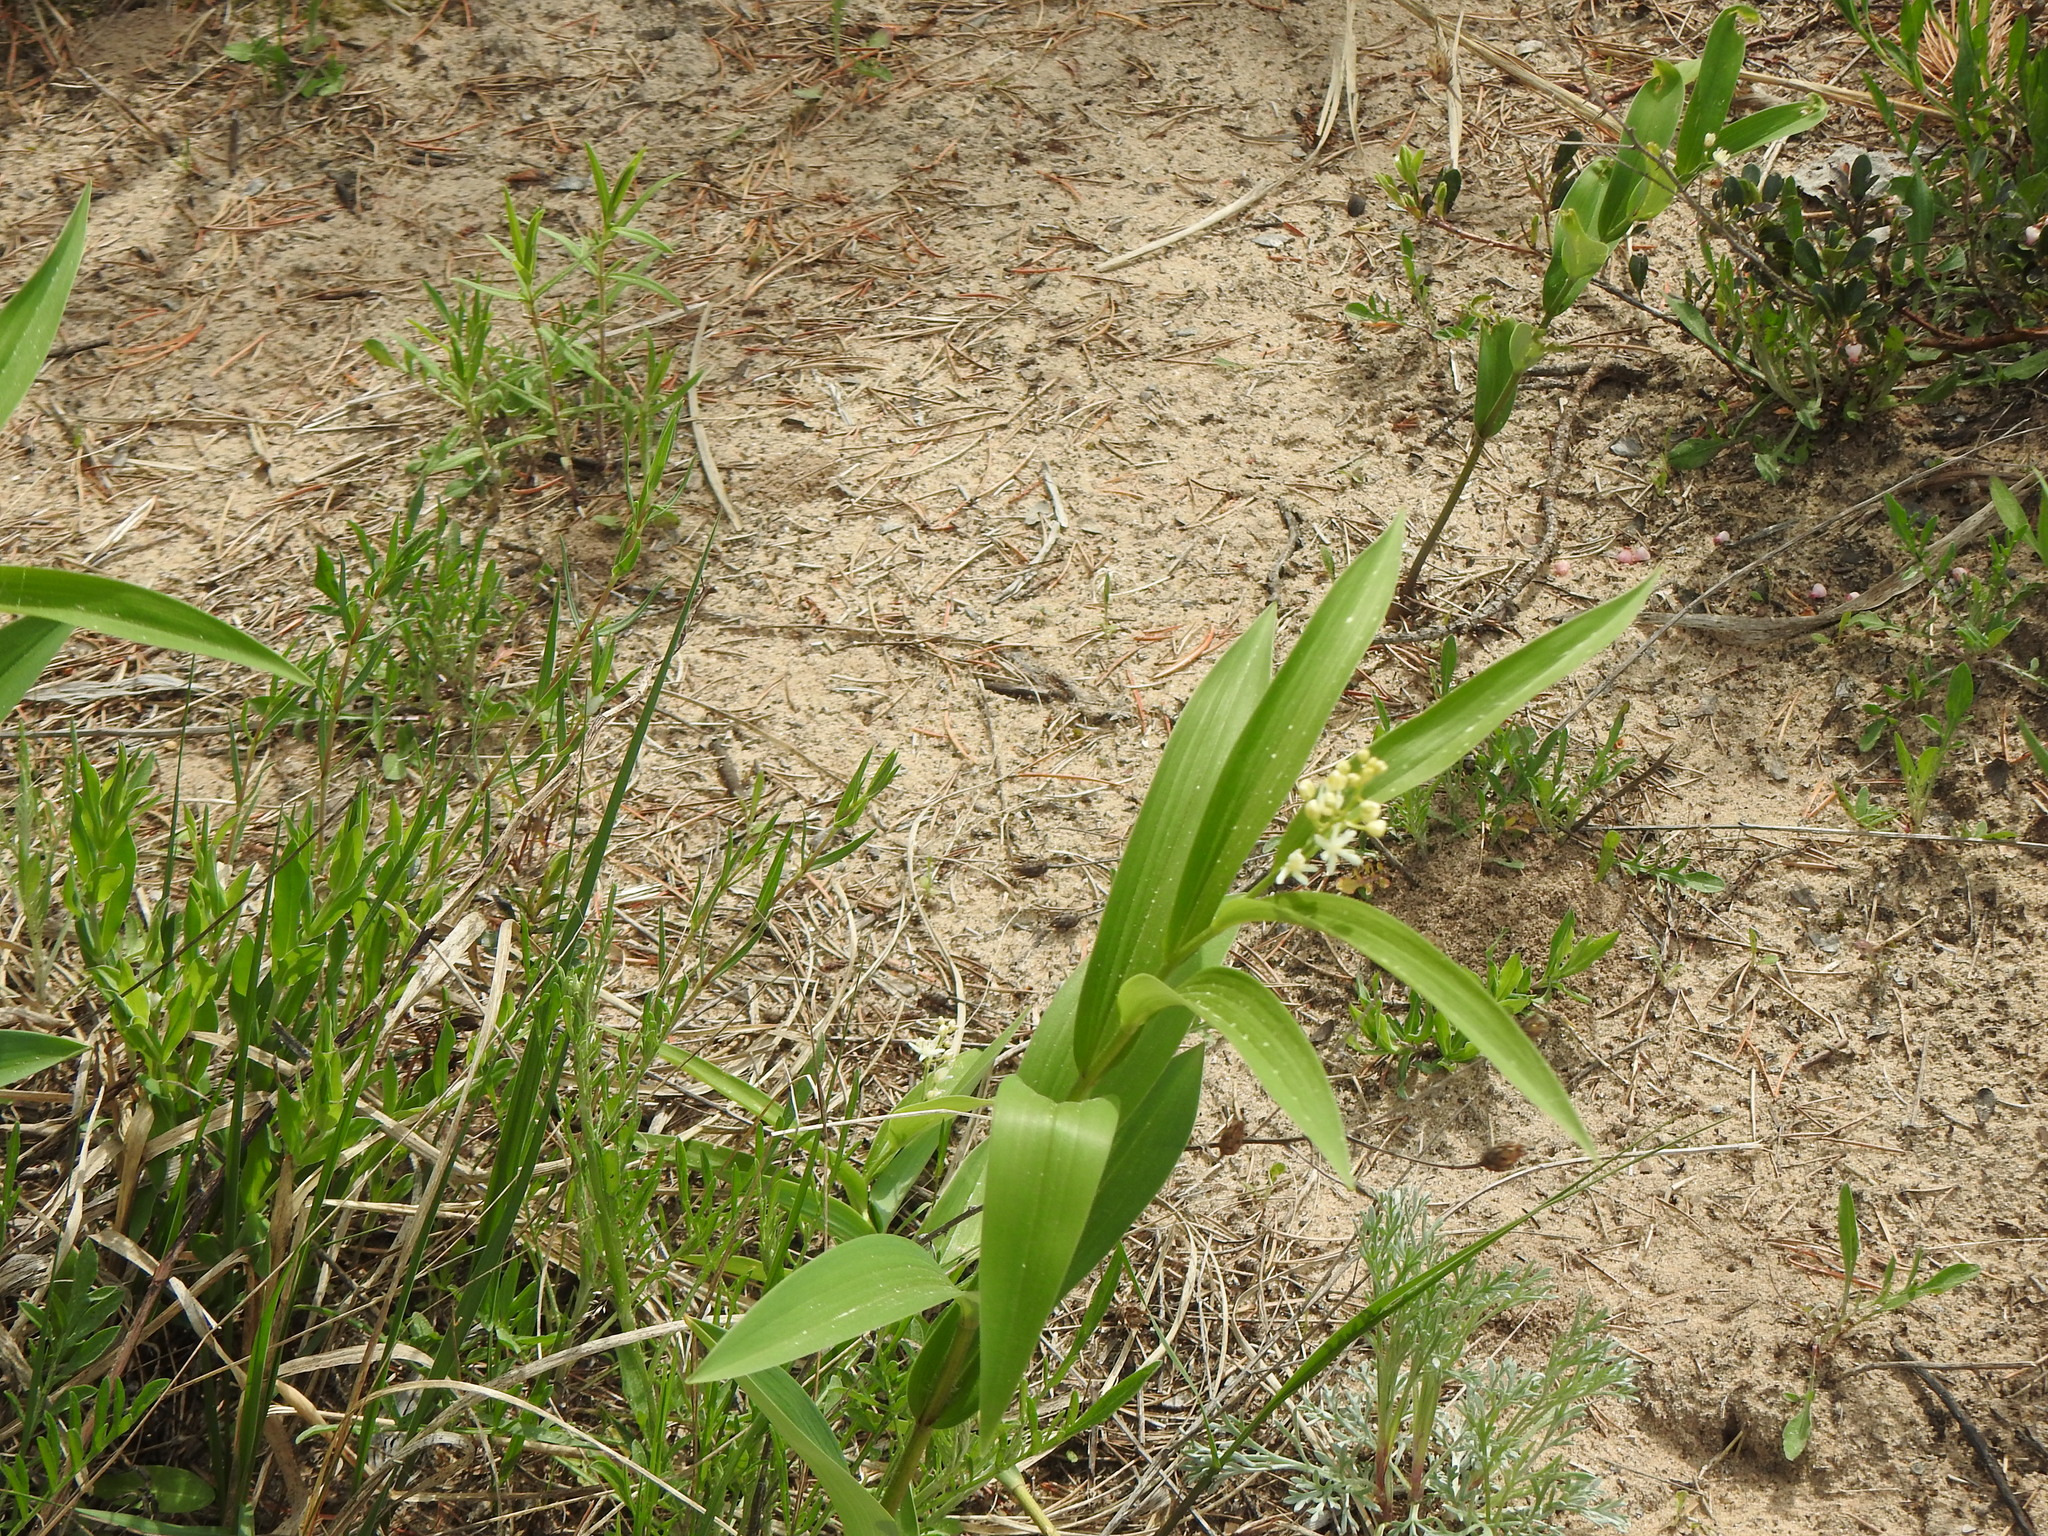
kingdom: Plantae
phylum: Tracheophyta
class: Liliopsida
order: Asparagales
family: Asparagaceae
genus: Maianthemum
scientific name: Maianthemum stellatum
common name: Little false solomon's seal
